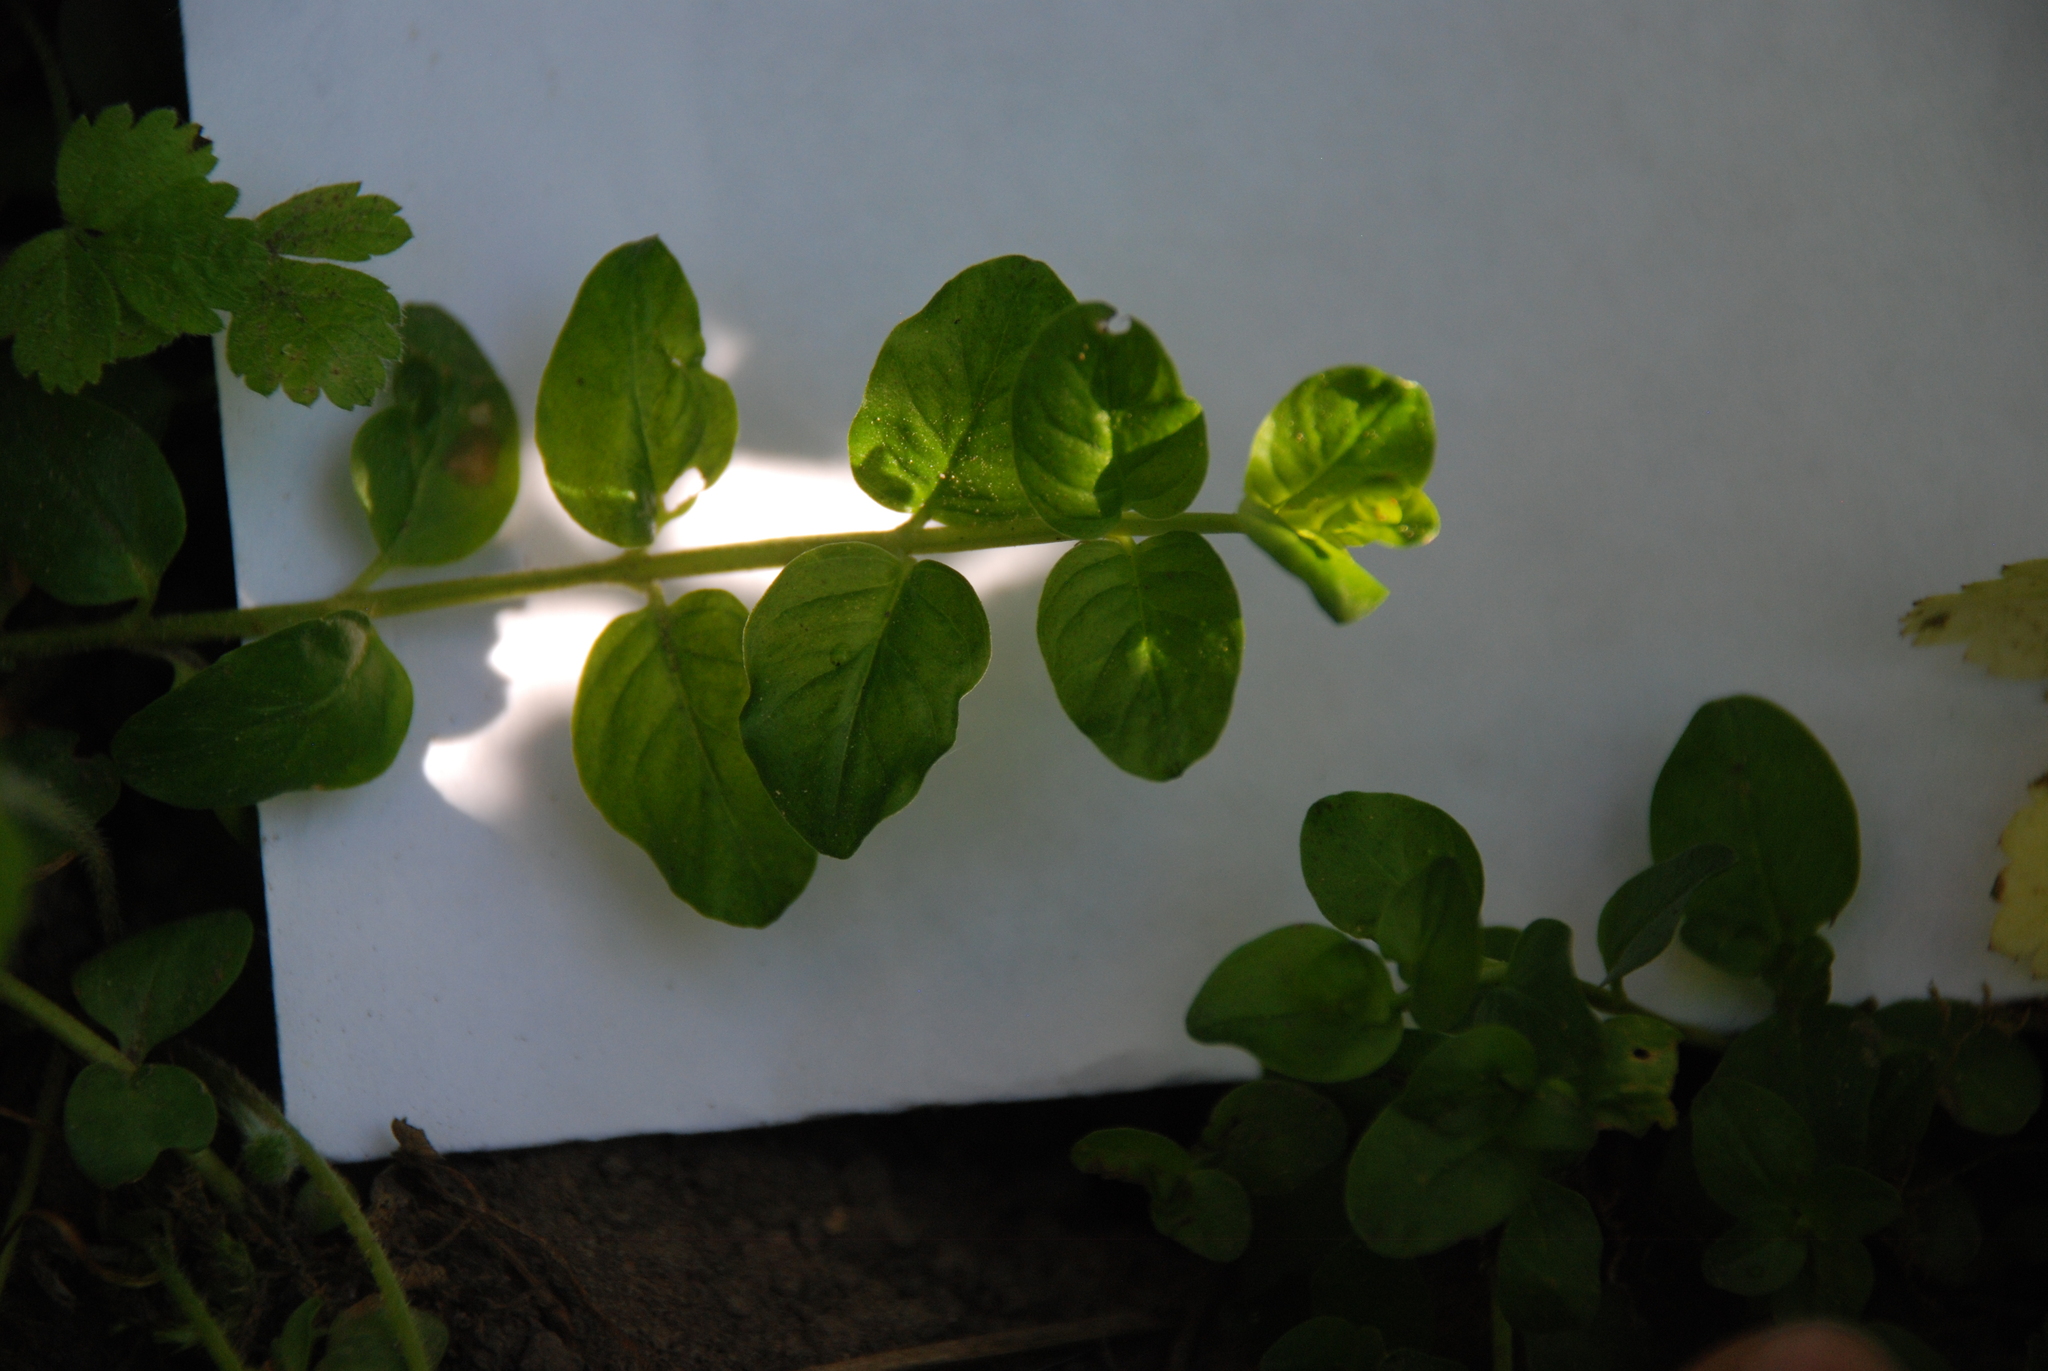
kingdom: Plantae
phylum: Tracheophyta
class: Magnoliopsida
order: Ericales
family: Primulaceae
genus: Lysimachia
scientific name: Lysimachia nummularia
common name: Moneywort
